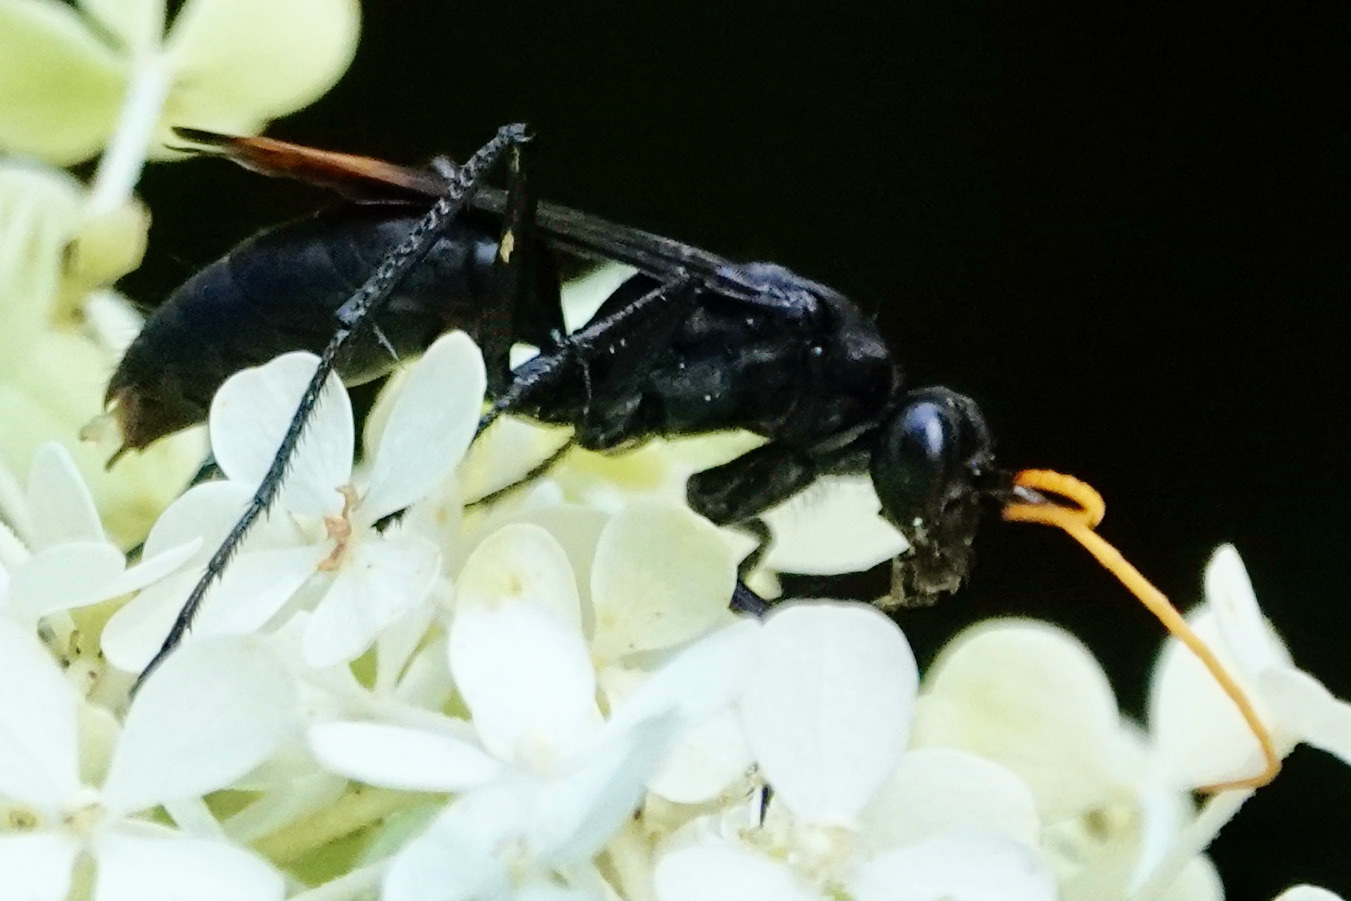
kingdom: Animalia
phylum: Arthropoda
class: Insecta
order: Hymenoptera
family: Pompilidae
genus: Entypus
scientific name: Entypus unifasciatus
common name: Eastern tawny-horned spider wasp
